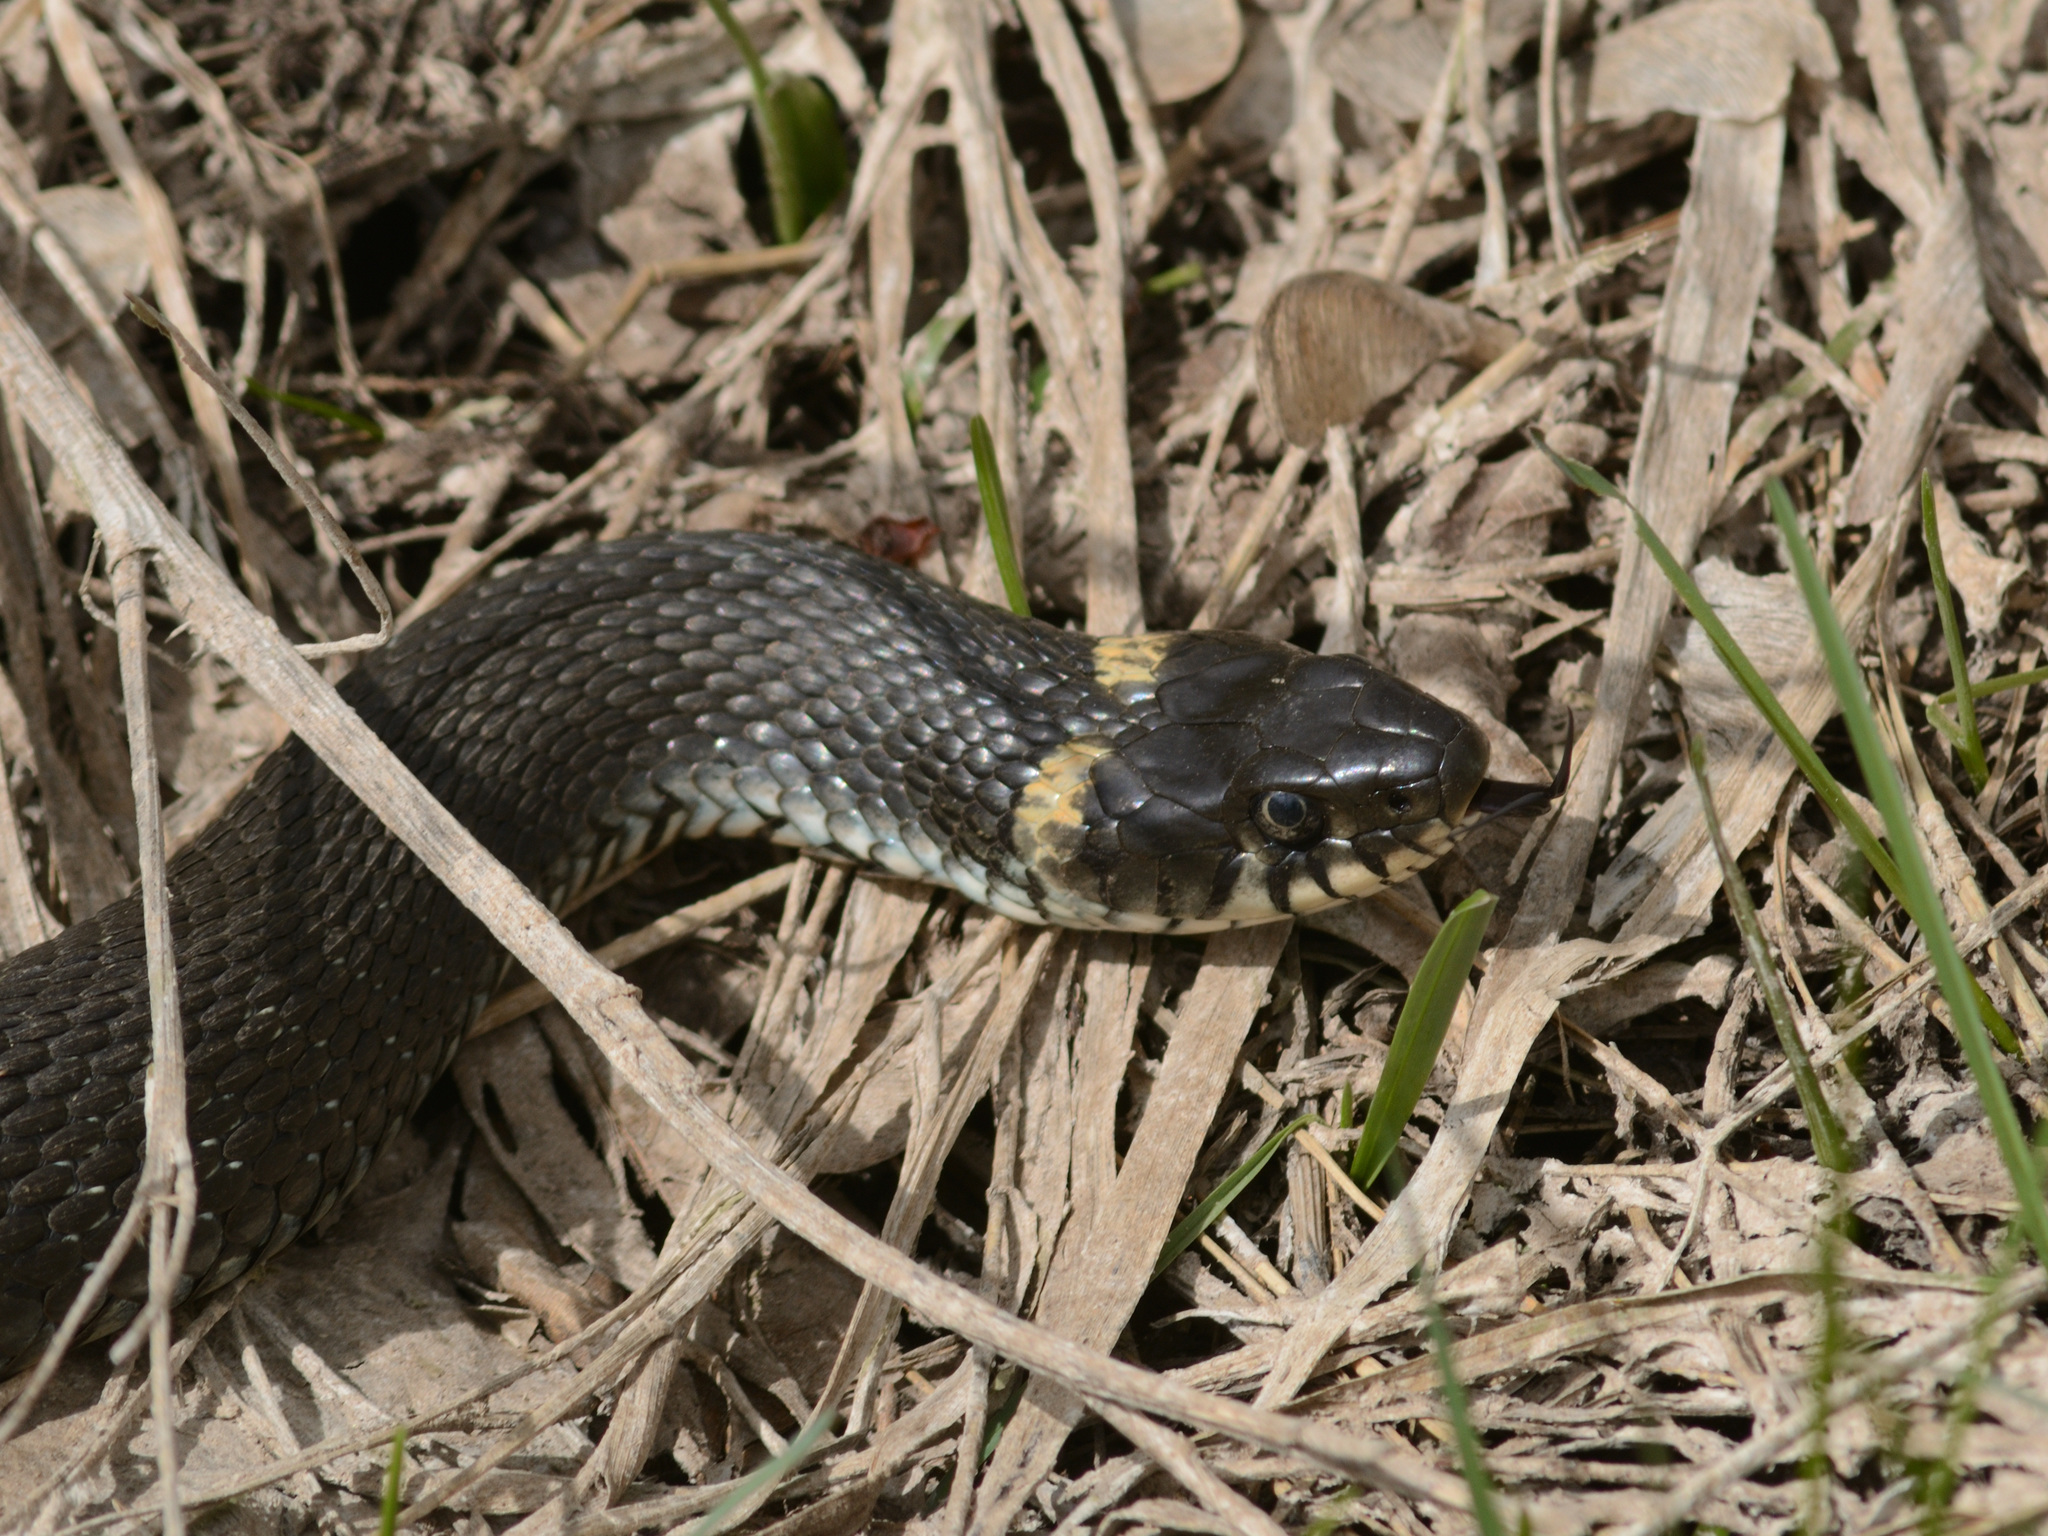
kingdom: Animalia
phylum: Chordata
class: Squamata
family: Colubridae
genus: Natrix
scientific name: Natrix natrix
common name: Grass snake
